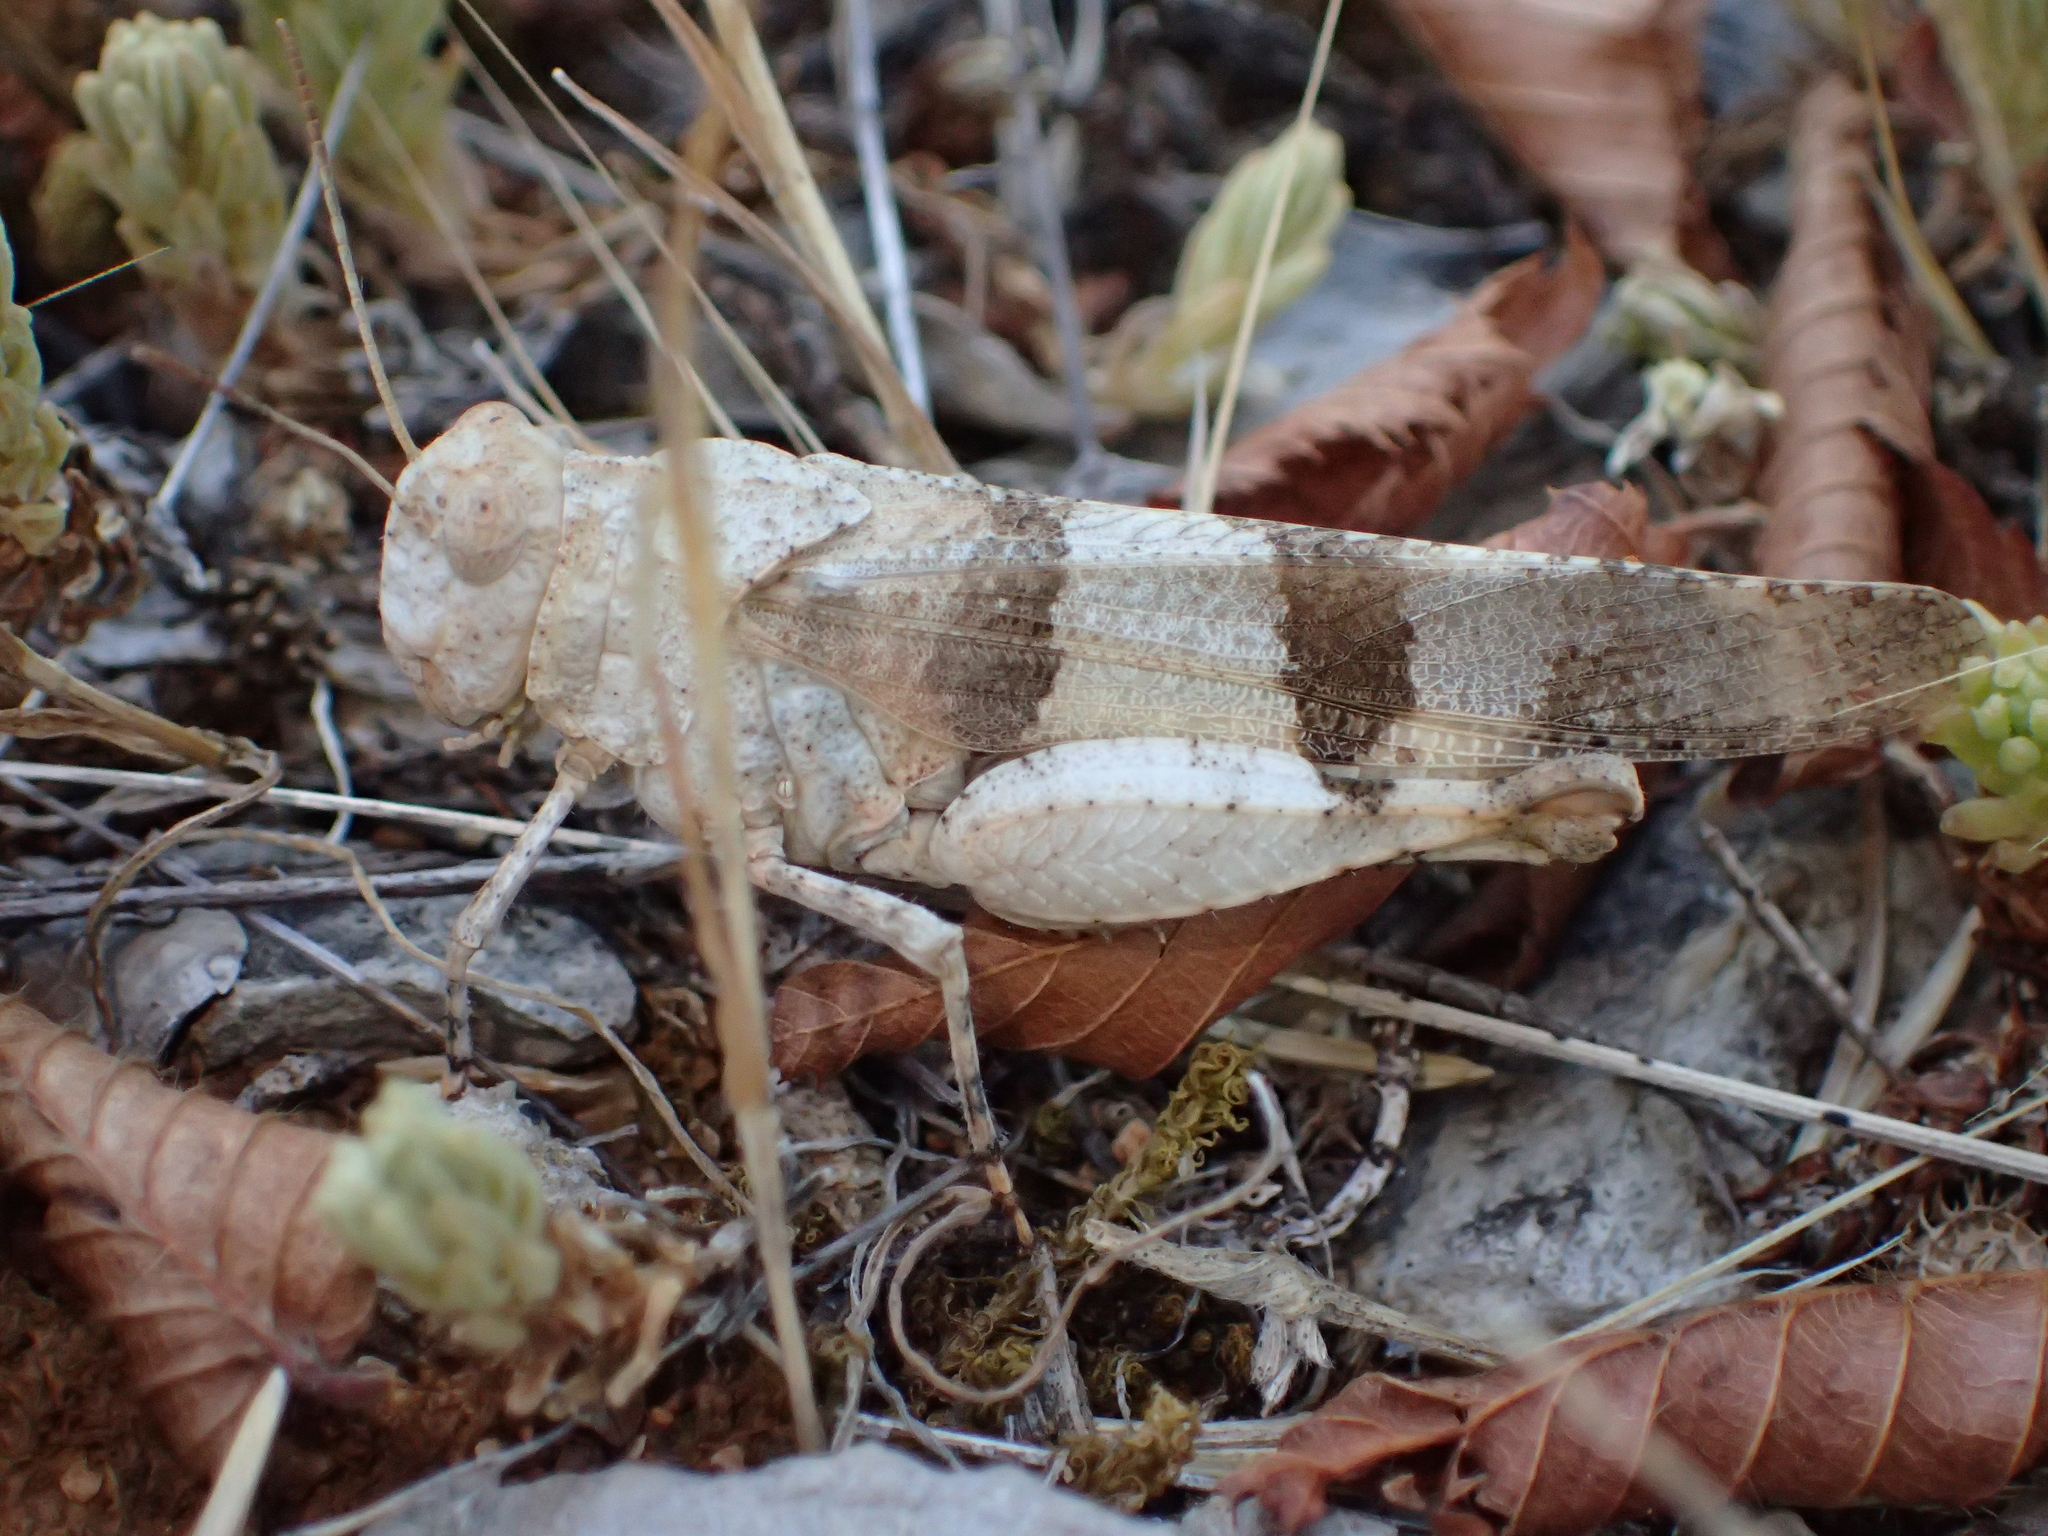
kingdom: Animalia
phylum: Arthropoda
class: Insecta
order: Orthoptera
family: Acrididae
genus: Oedipoda
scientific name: Oedipoda caerulescens
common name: Blue-winged grasshopper
